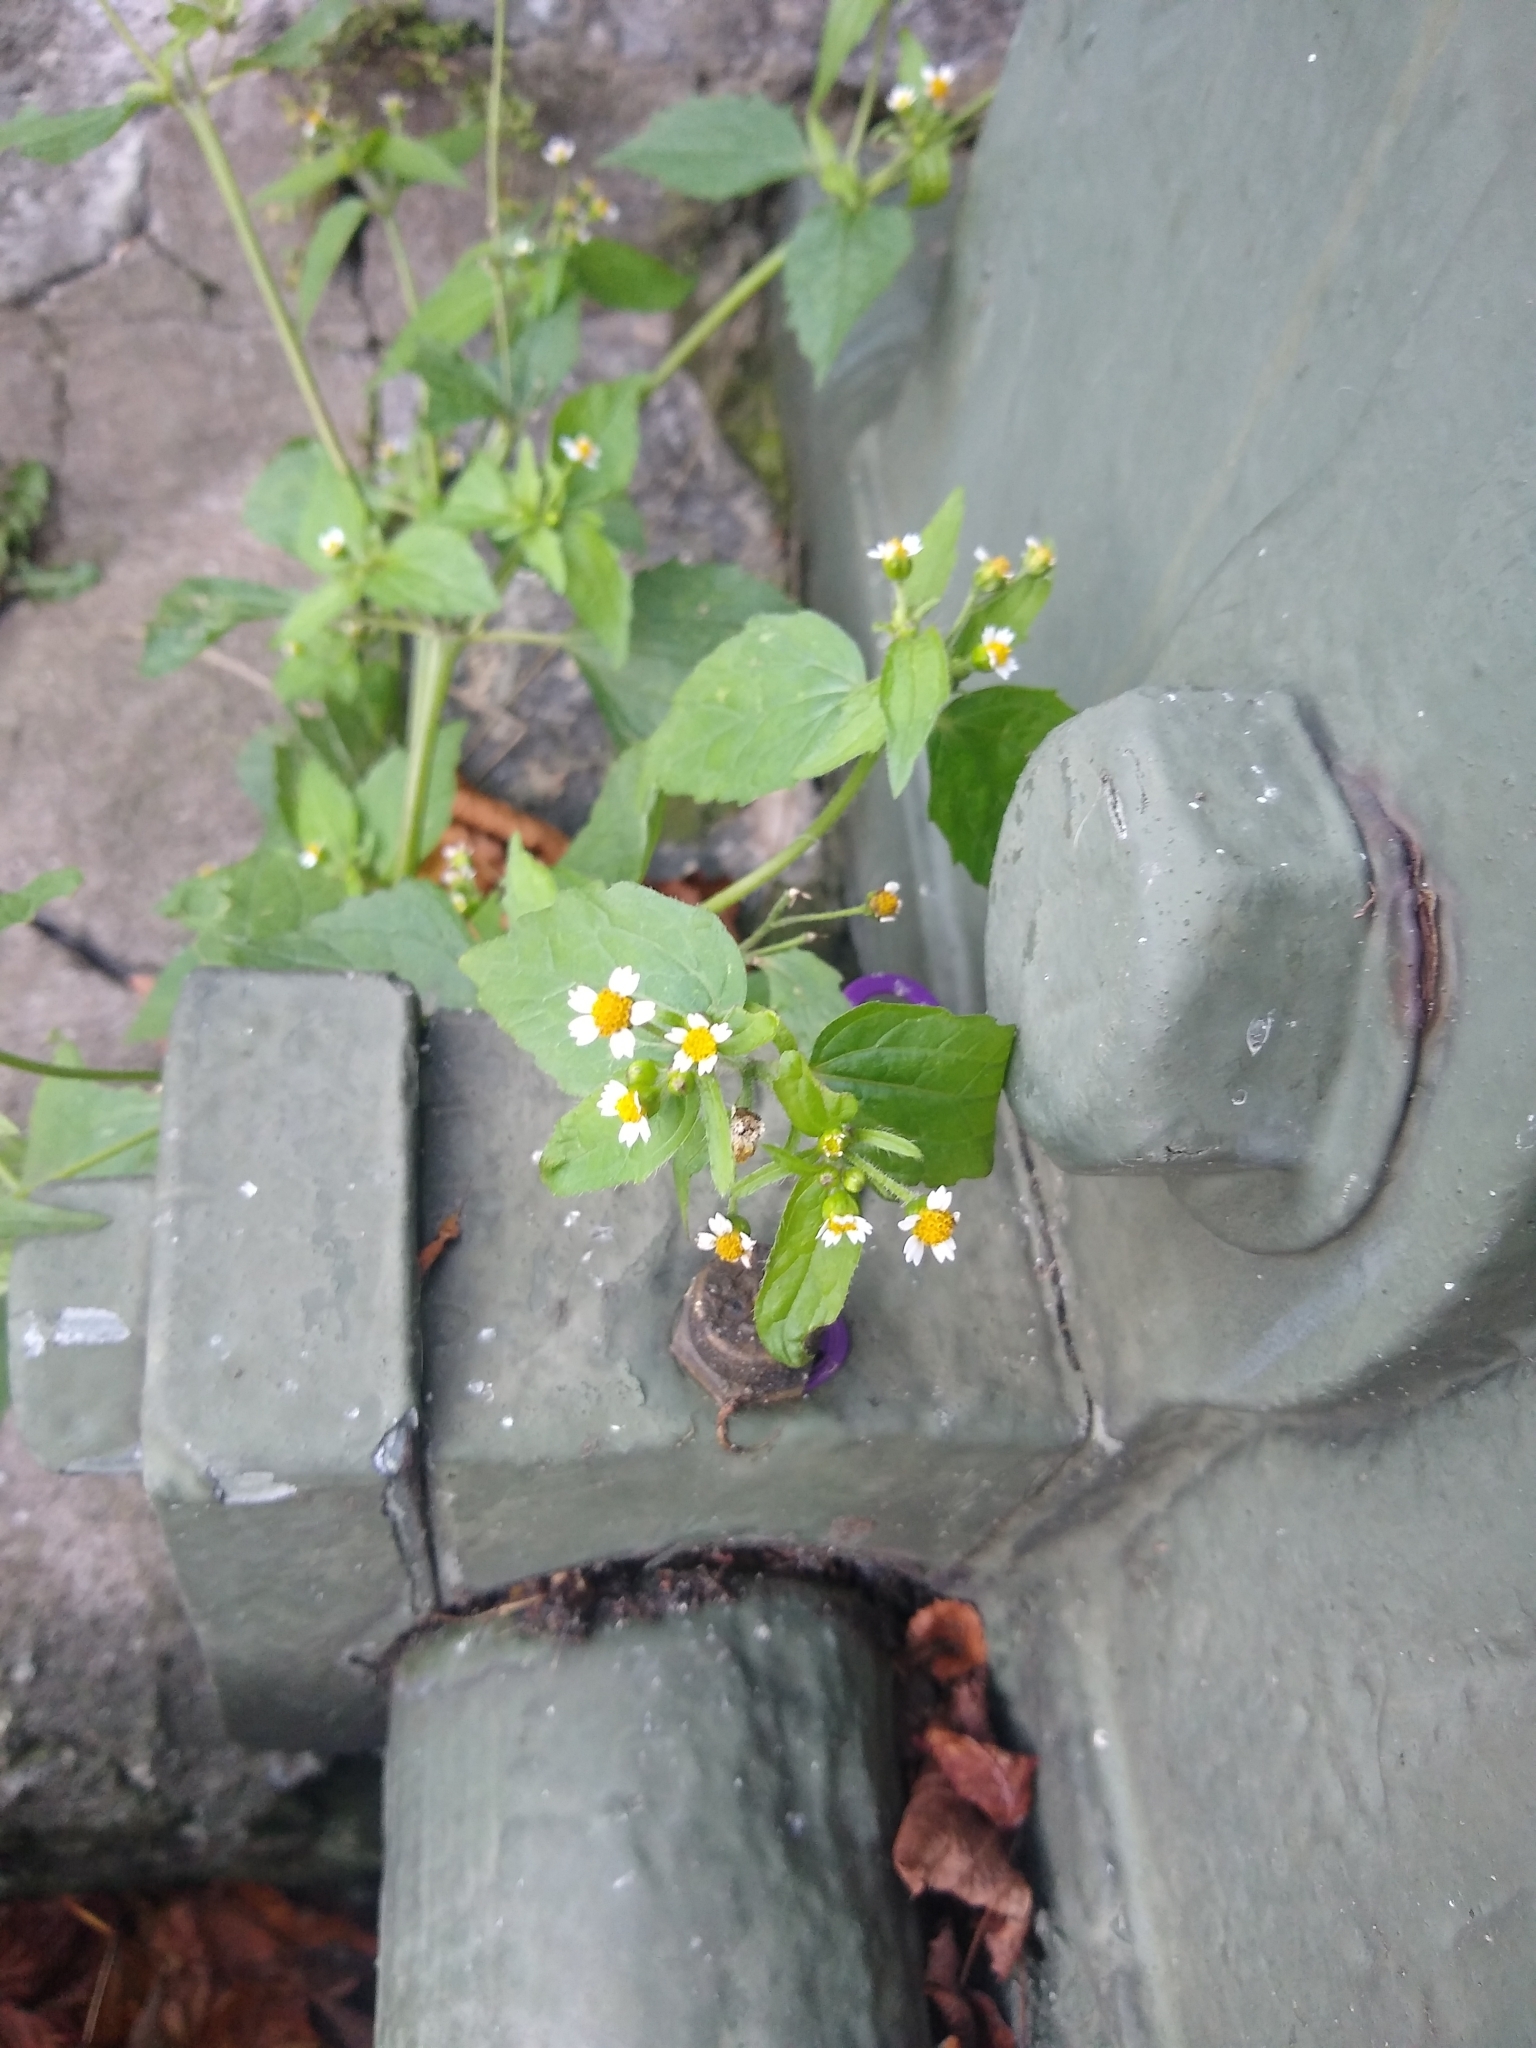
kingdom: Plantae
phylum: Tracheophyta
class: Magnoliopsida
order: Asterales
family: Asteraceae
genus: Galinsoga
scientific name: Galinsoga quadriradiata
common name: Shaggy soldier
